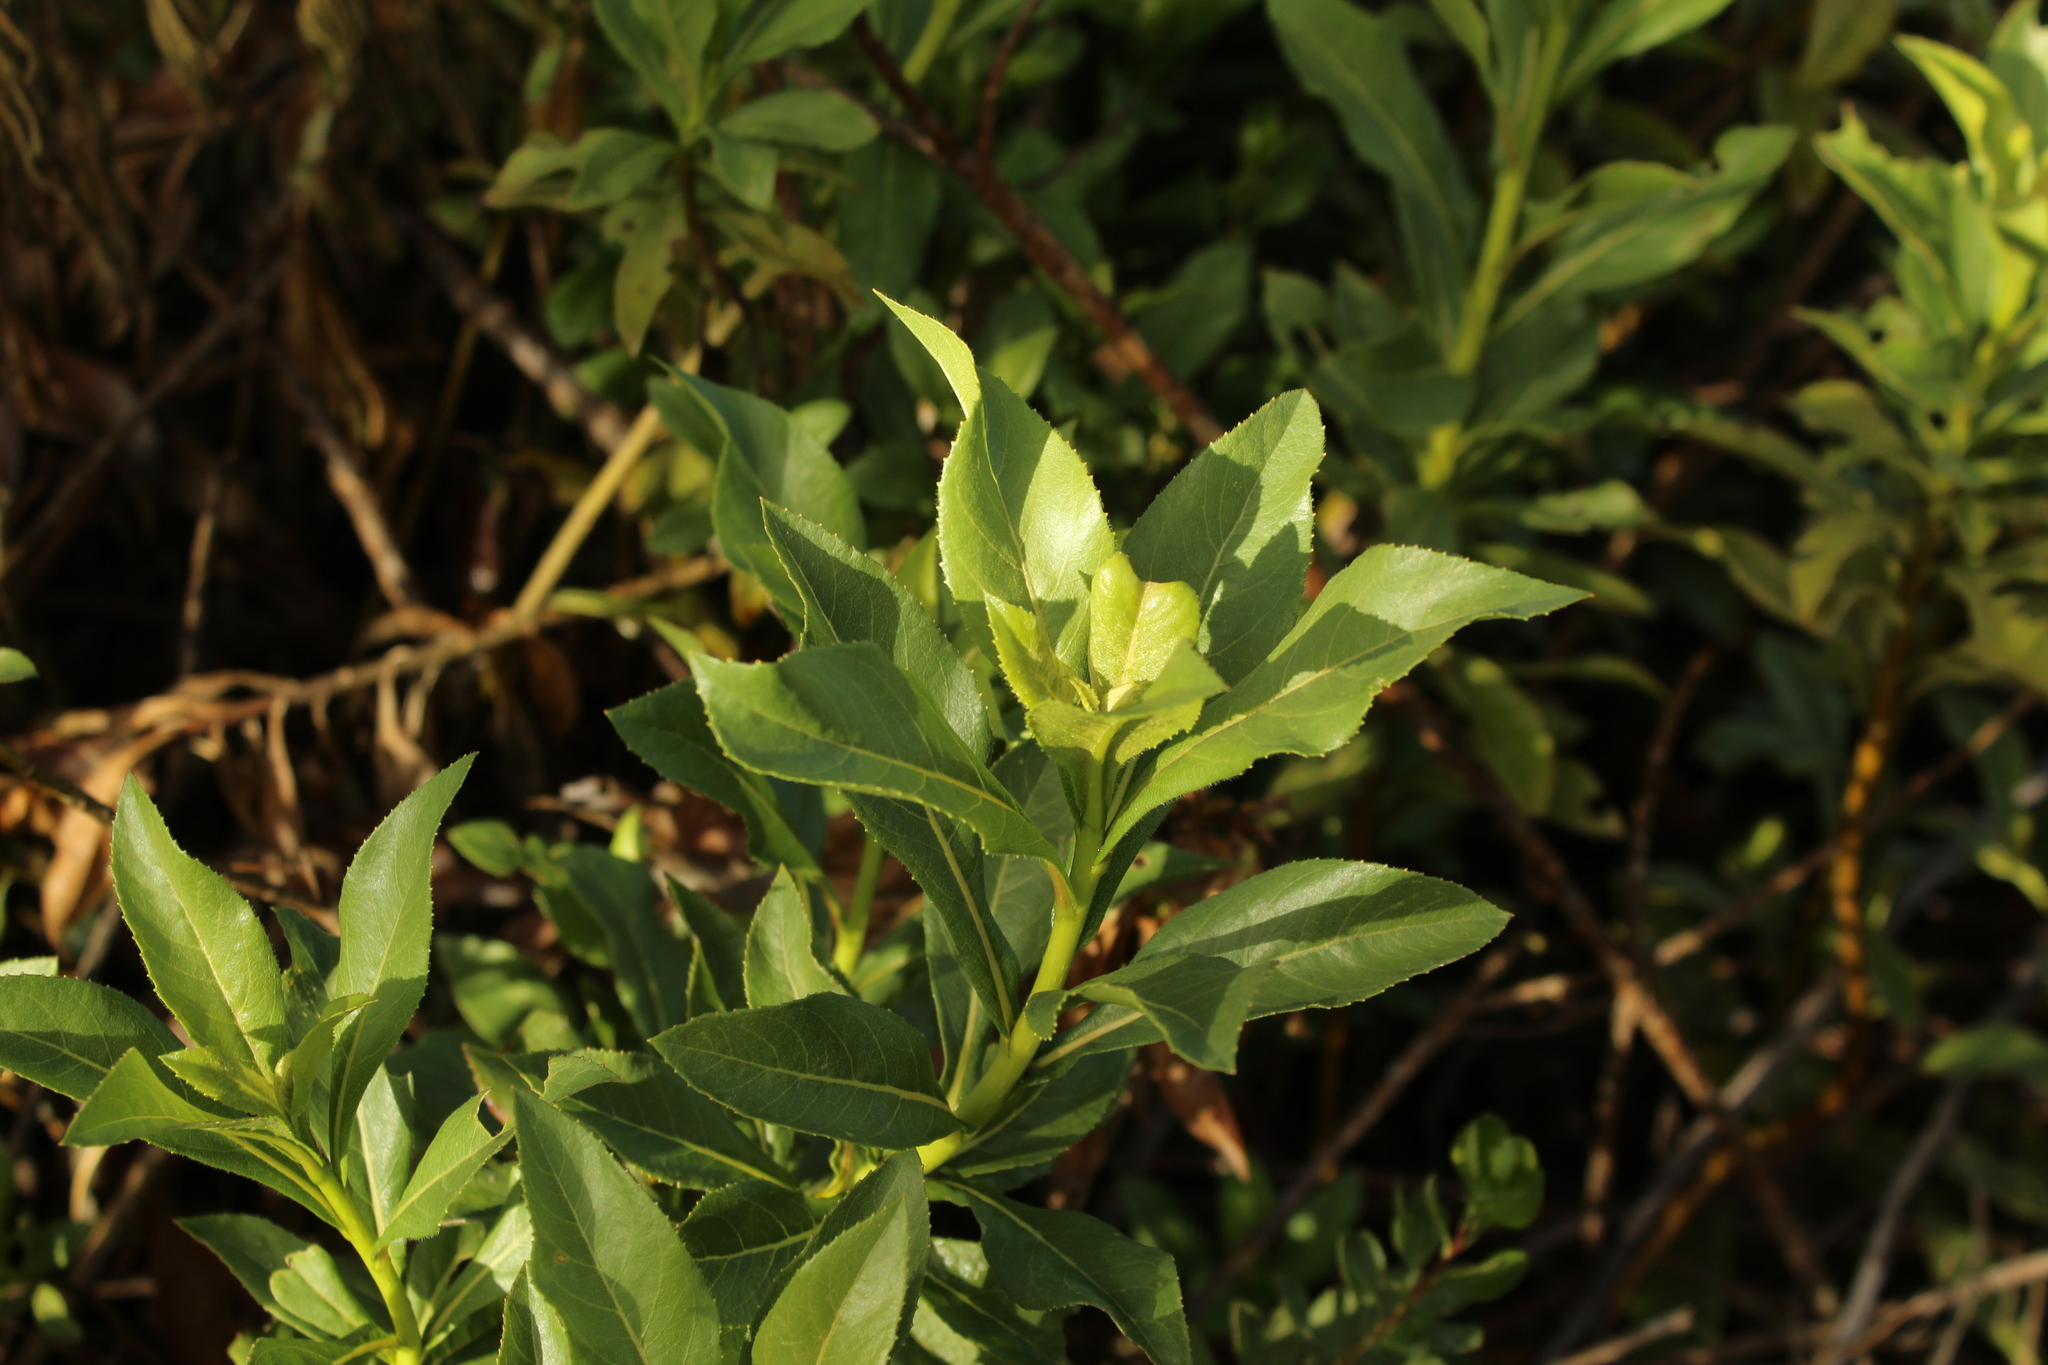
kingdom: Plantae
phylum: Tracheophyta
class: Magnoliopsida
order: Asterales
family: Asteraceae
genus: Verbesina
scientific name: Verbesina centroboyacana
